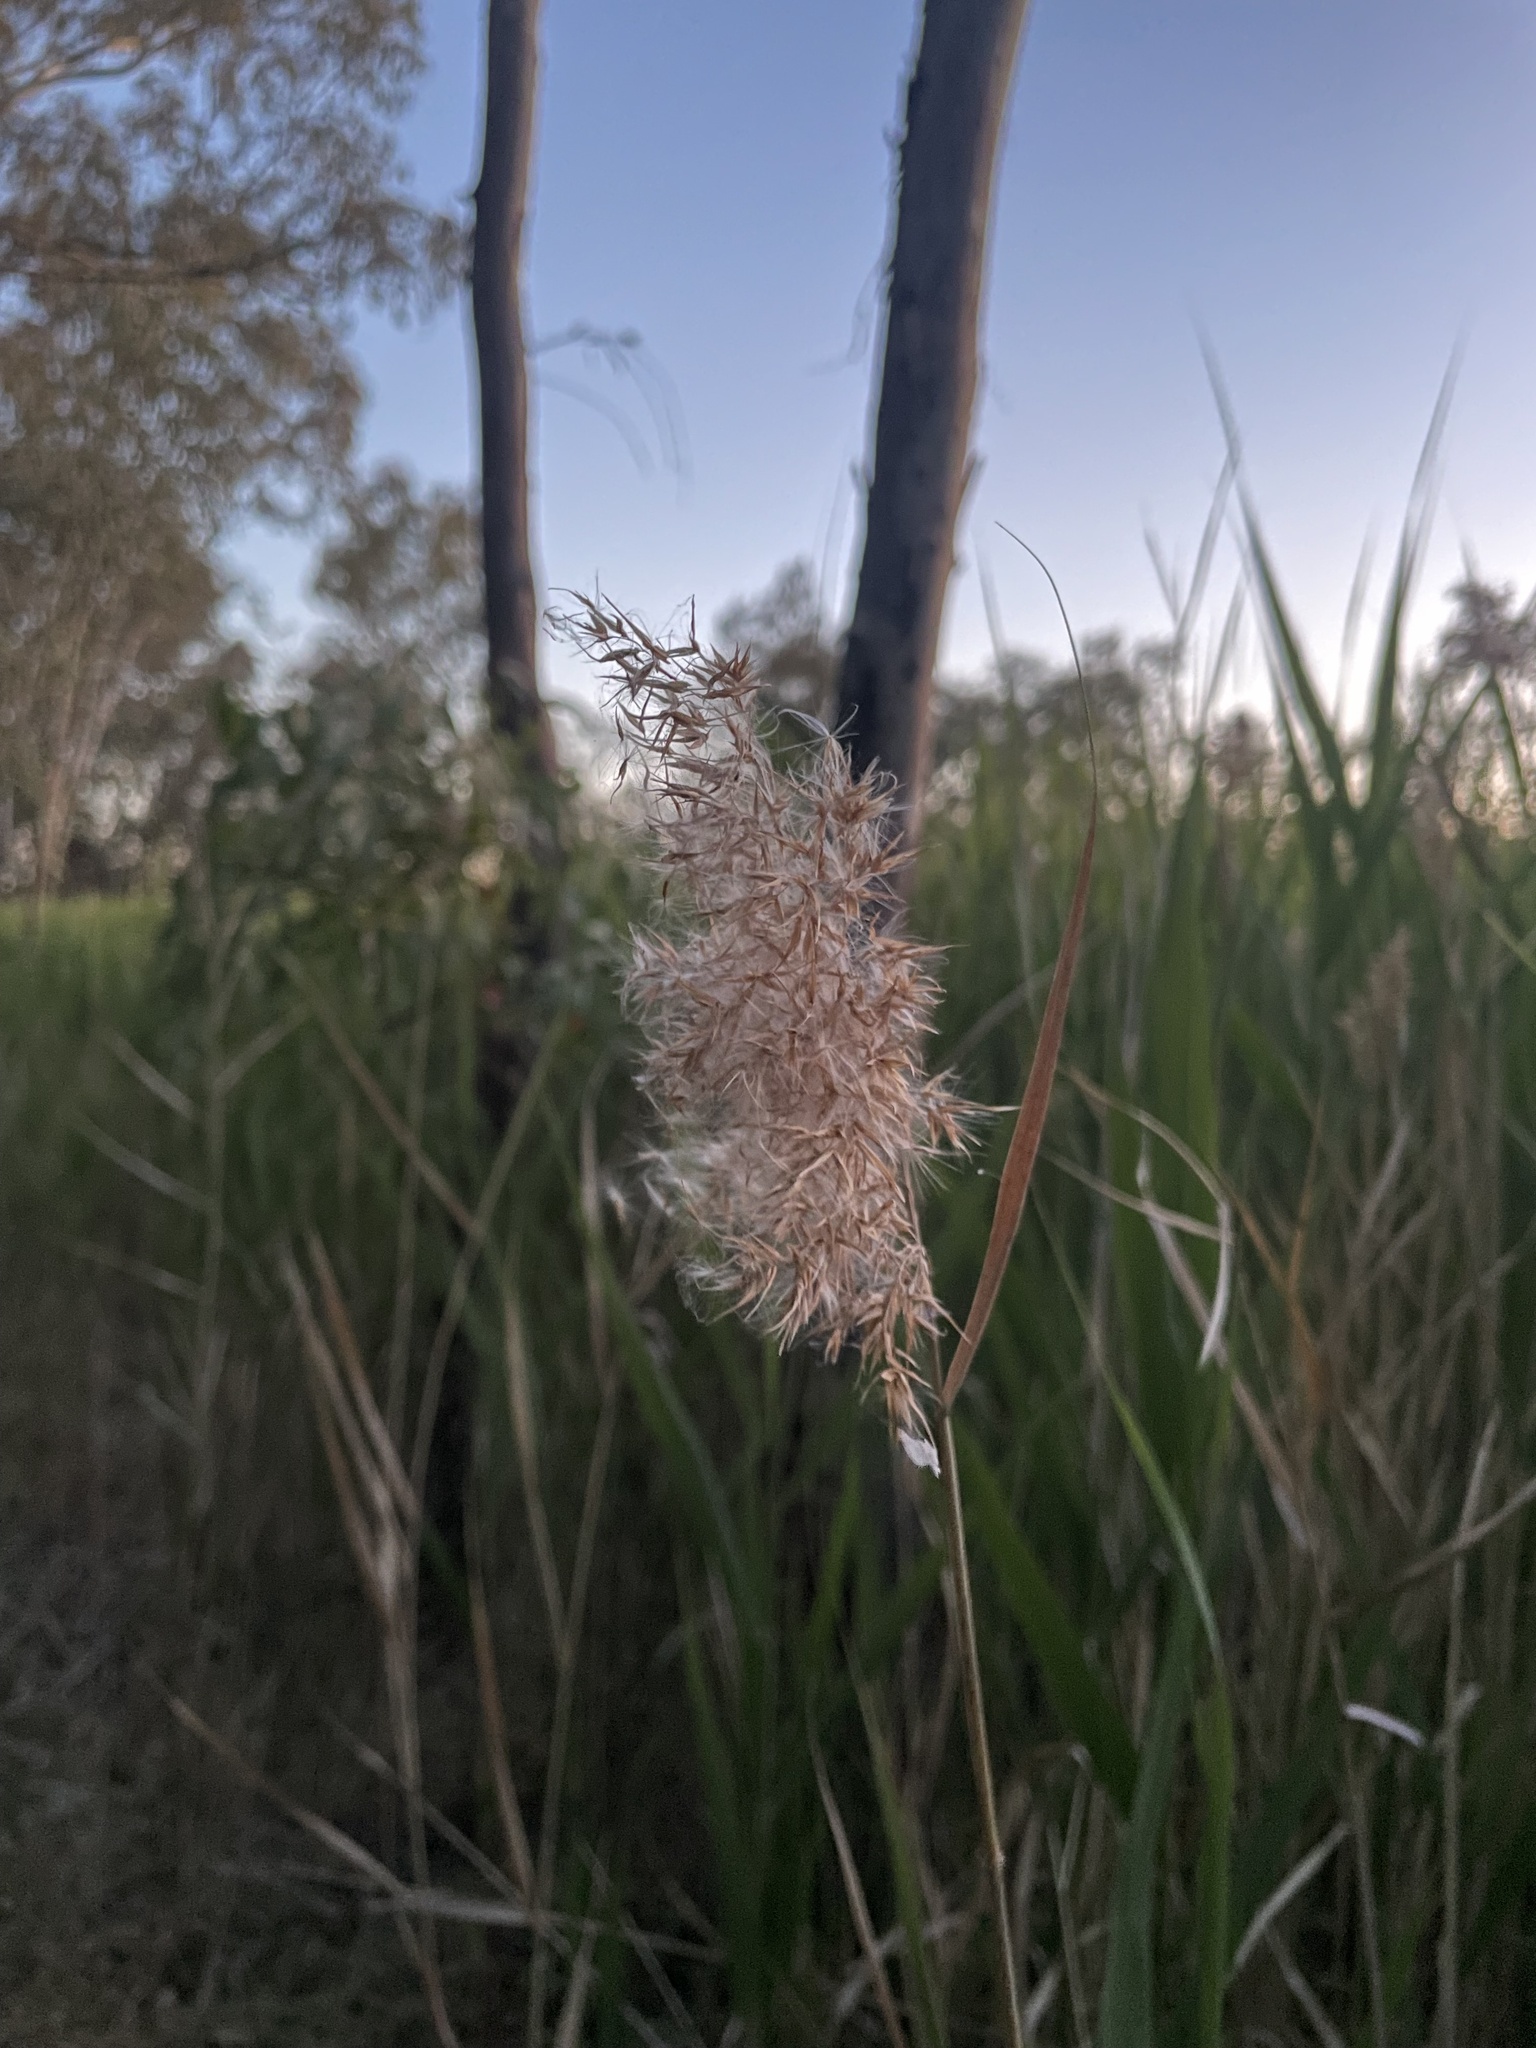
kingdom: Plantae
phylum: Tracheophyta
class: Liliopsida
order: Poales
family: Poaceae
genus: Phragmites
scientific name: Phragmites australis
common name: Common reed
